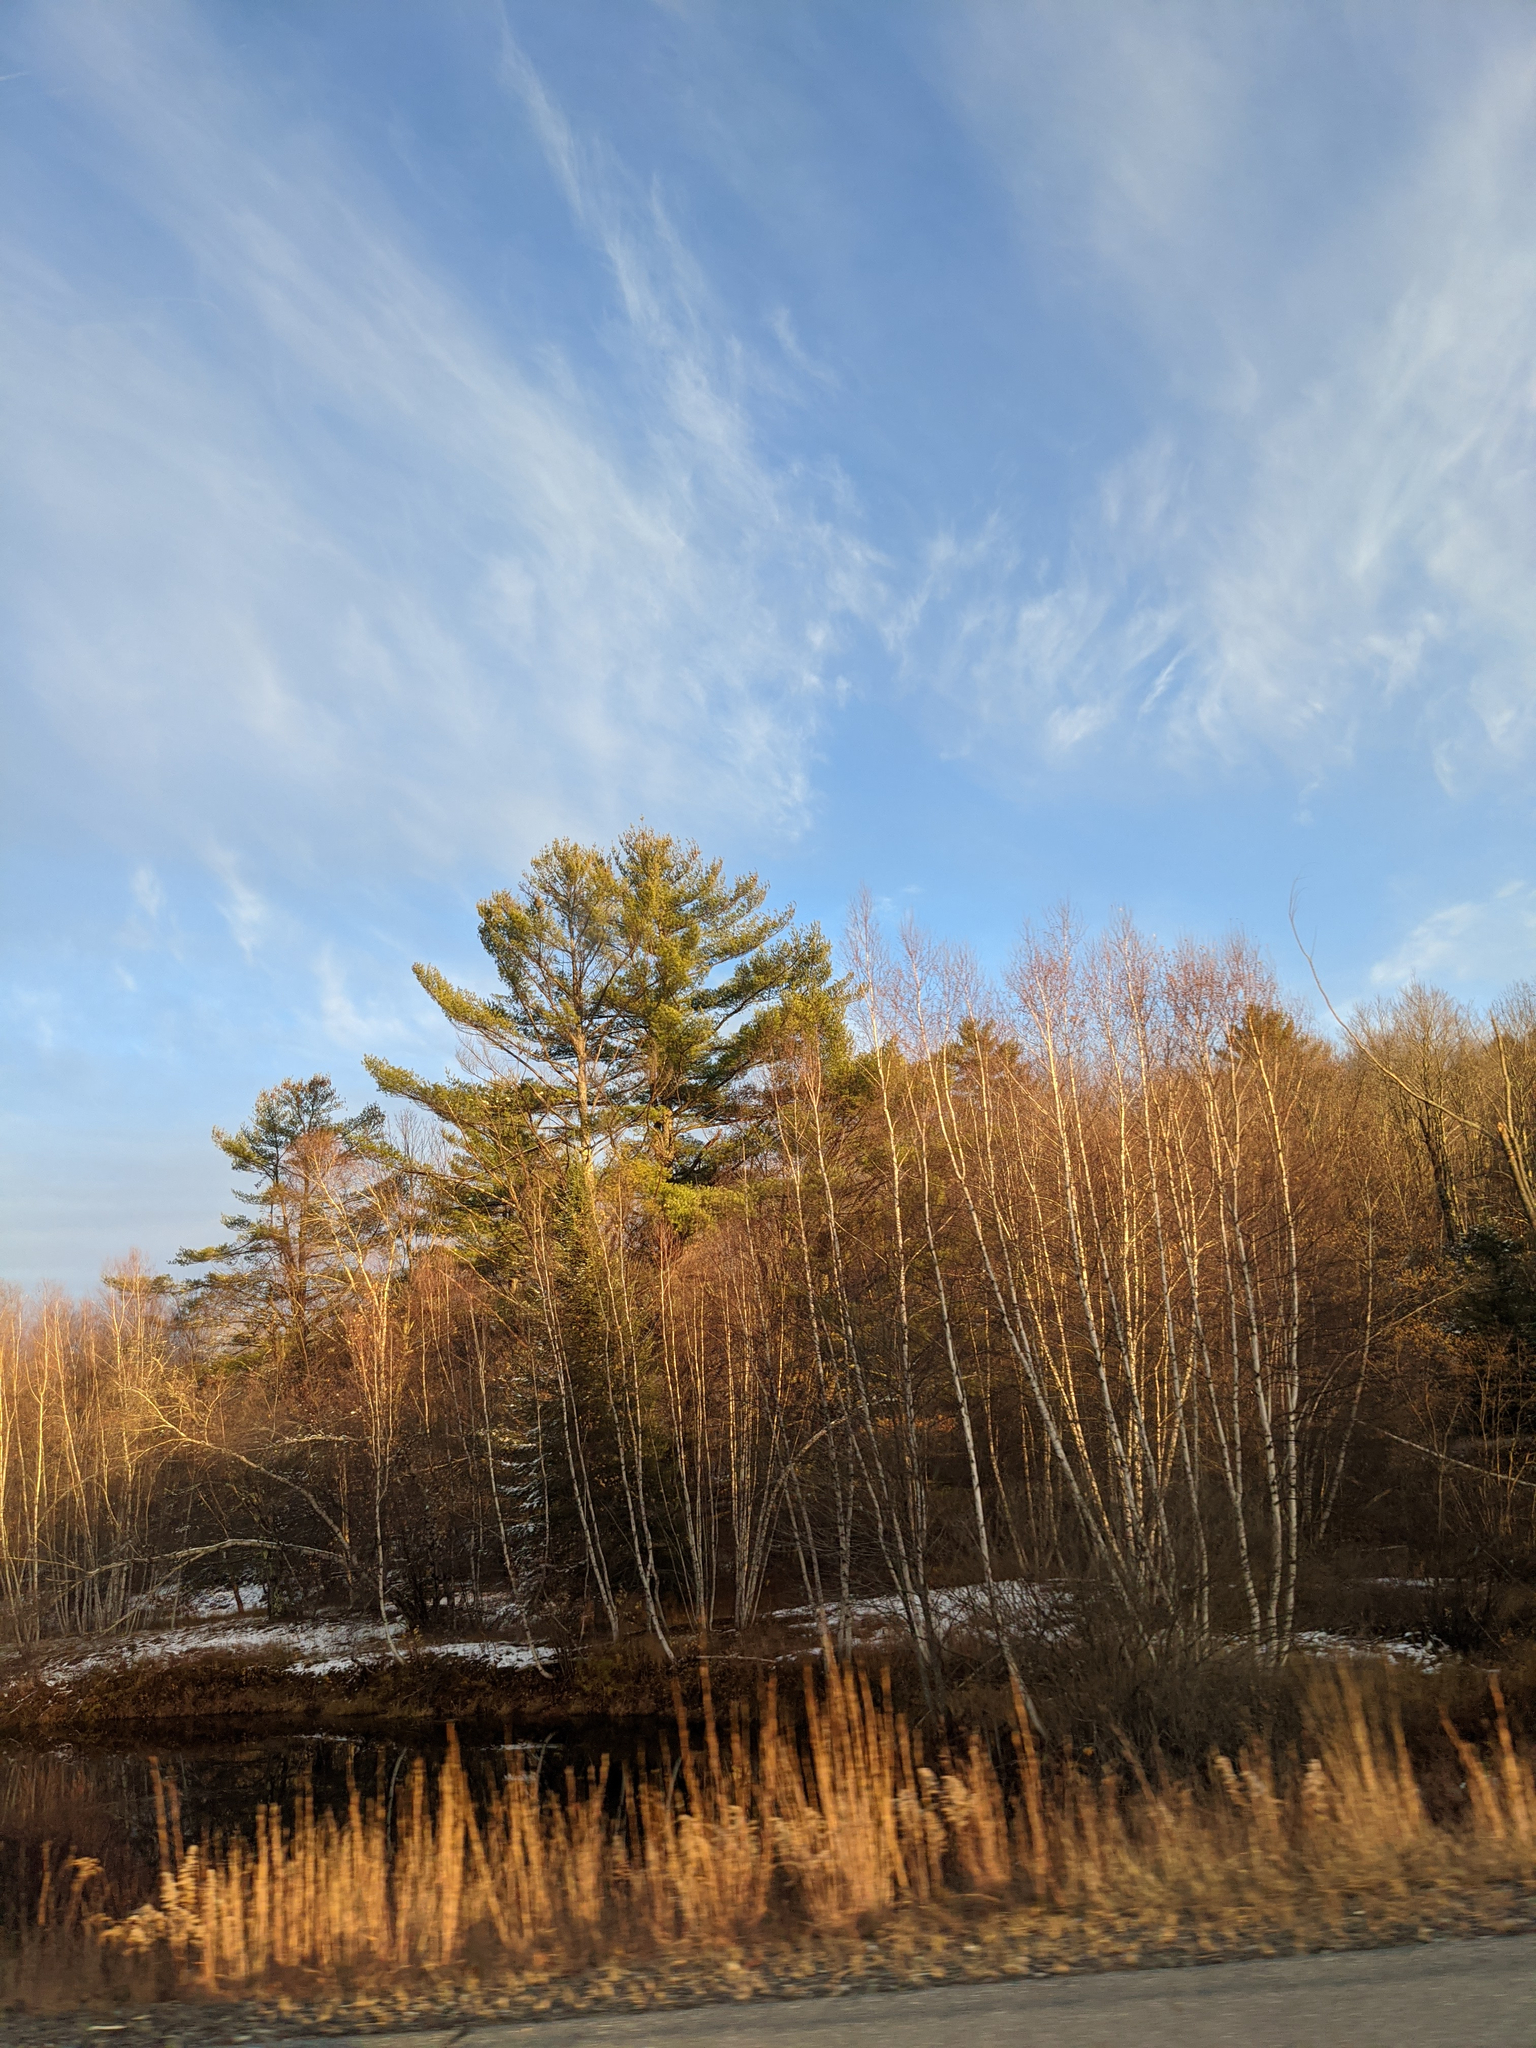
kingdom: Plantae
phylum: Tracheophyta
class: Pinopsida
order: Pinales
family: Pinaceae
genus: Pinus
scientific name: Pinus strobus
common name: Weymouth pine
